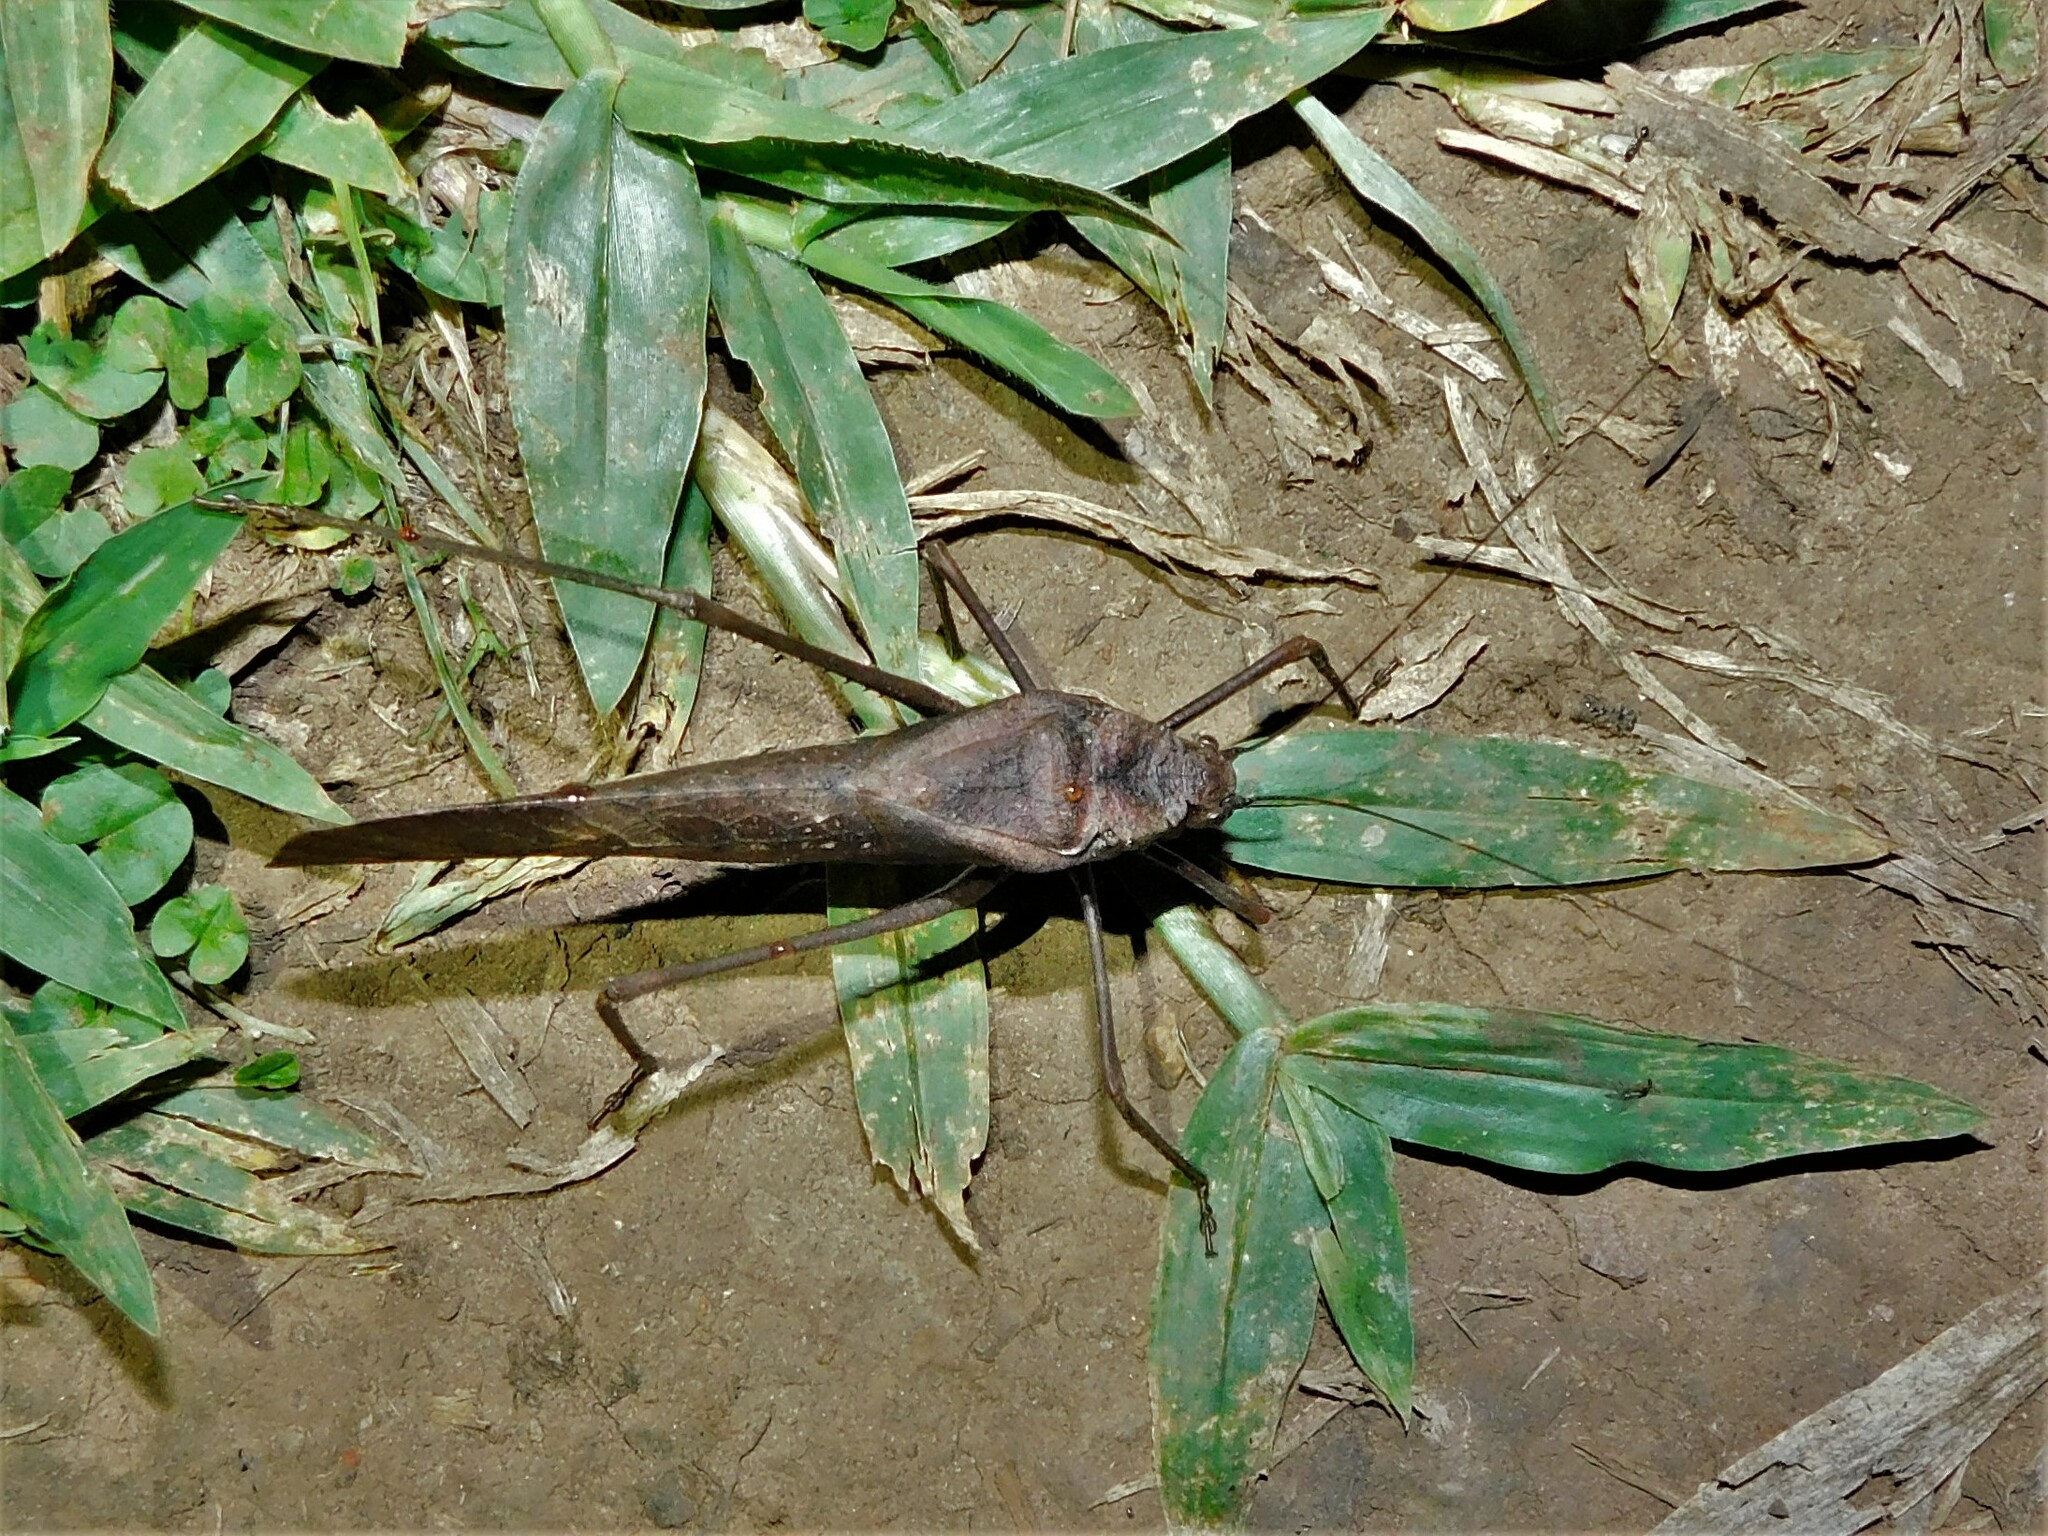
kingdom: Animalia
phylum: Arthropoda
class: Insecta
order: Orthoptera
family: Tettigoniidae
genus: Anoedopoda
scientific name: Anoedopoda erosa
